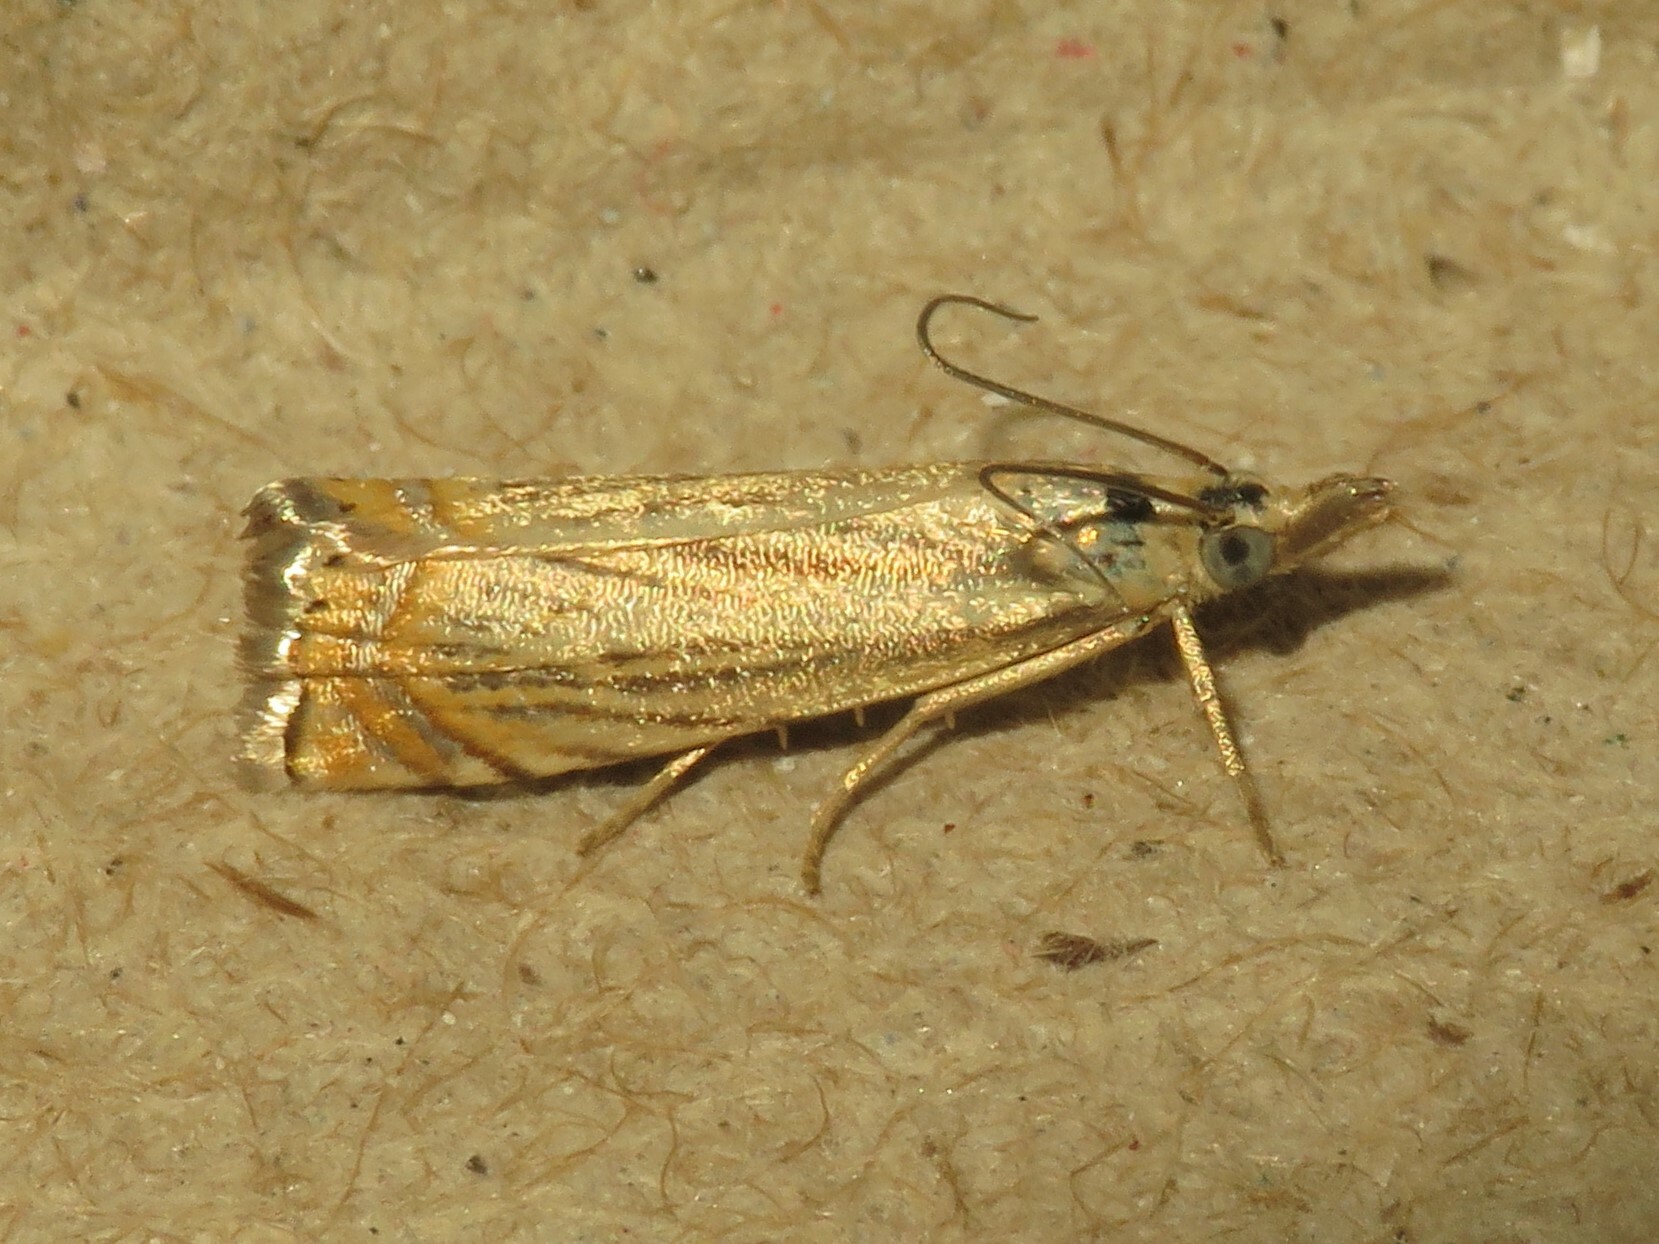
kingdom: Animalia
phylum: Arthropoda
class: Insecta
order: Lepidoptera
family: Crambidae
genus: Chrysoteuchia
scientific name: Chrysoteuchia topiarius
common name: Topiary grass-veneer
